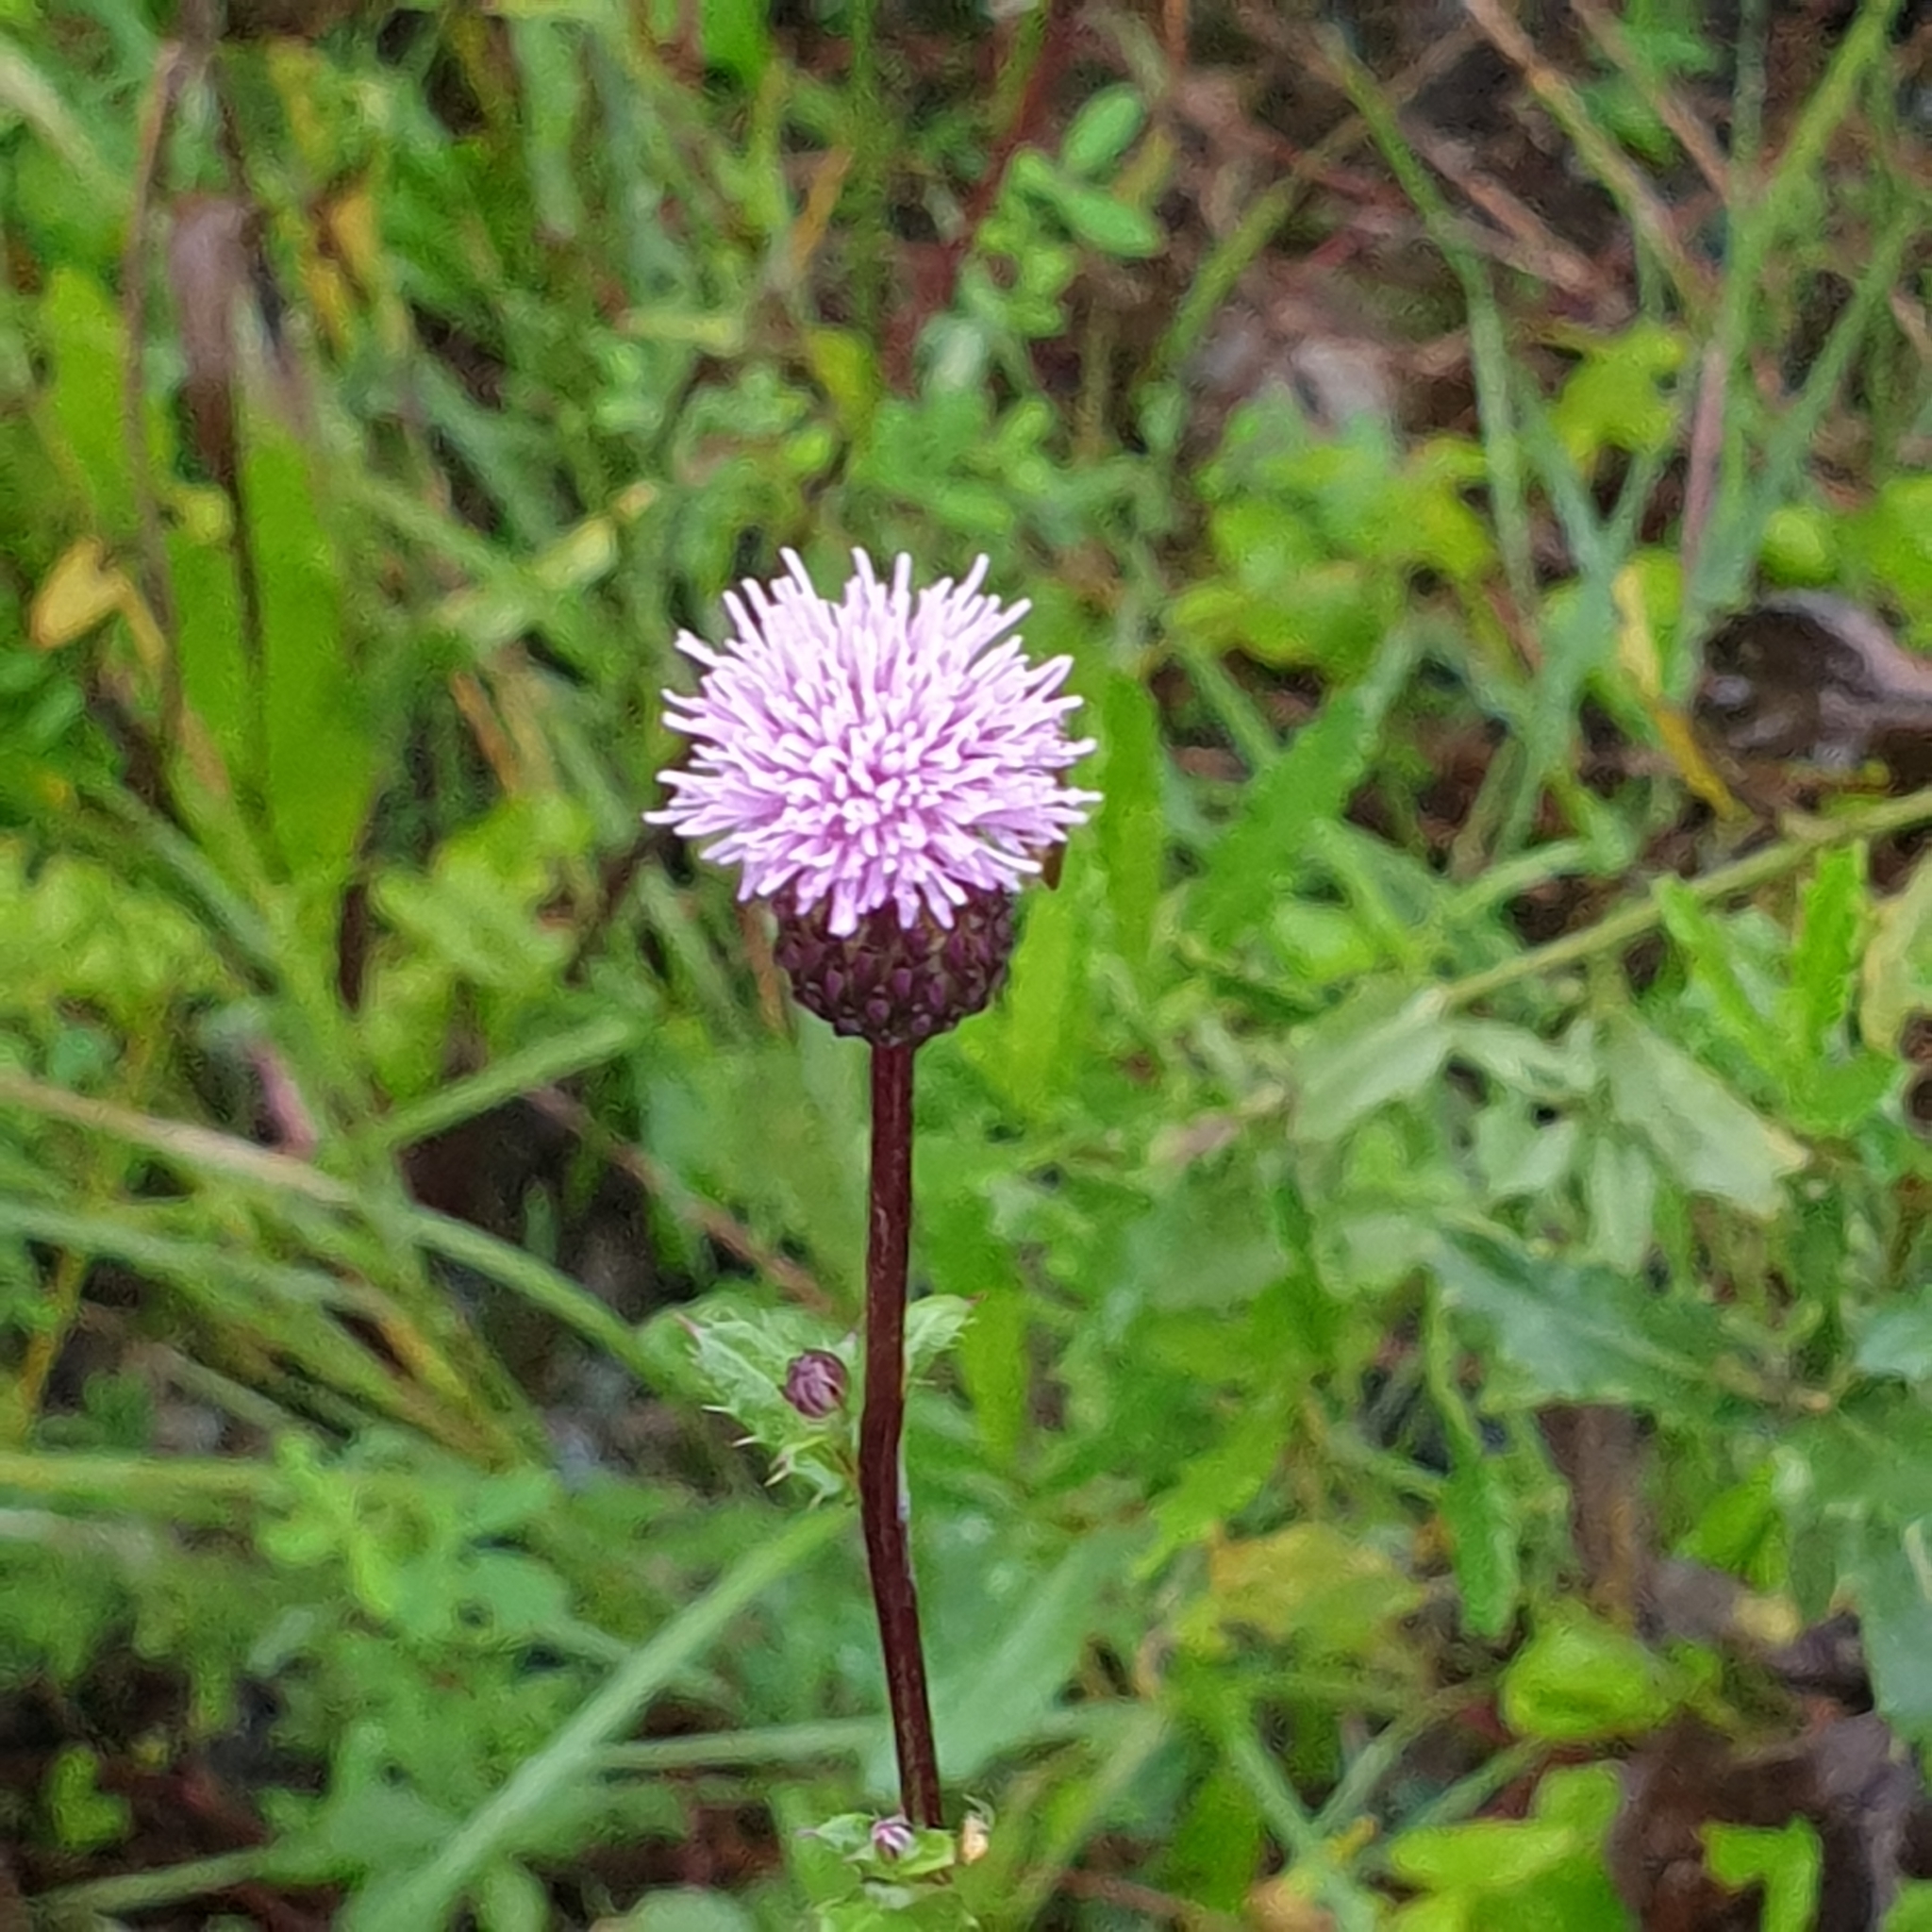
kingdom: Plantae
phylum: Tracheophyta
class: Magnoliopsida
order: Asterales
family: Asteraceae
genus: Cirsium
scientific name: Cirsium arvense
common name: Creeping thistle
